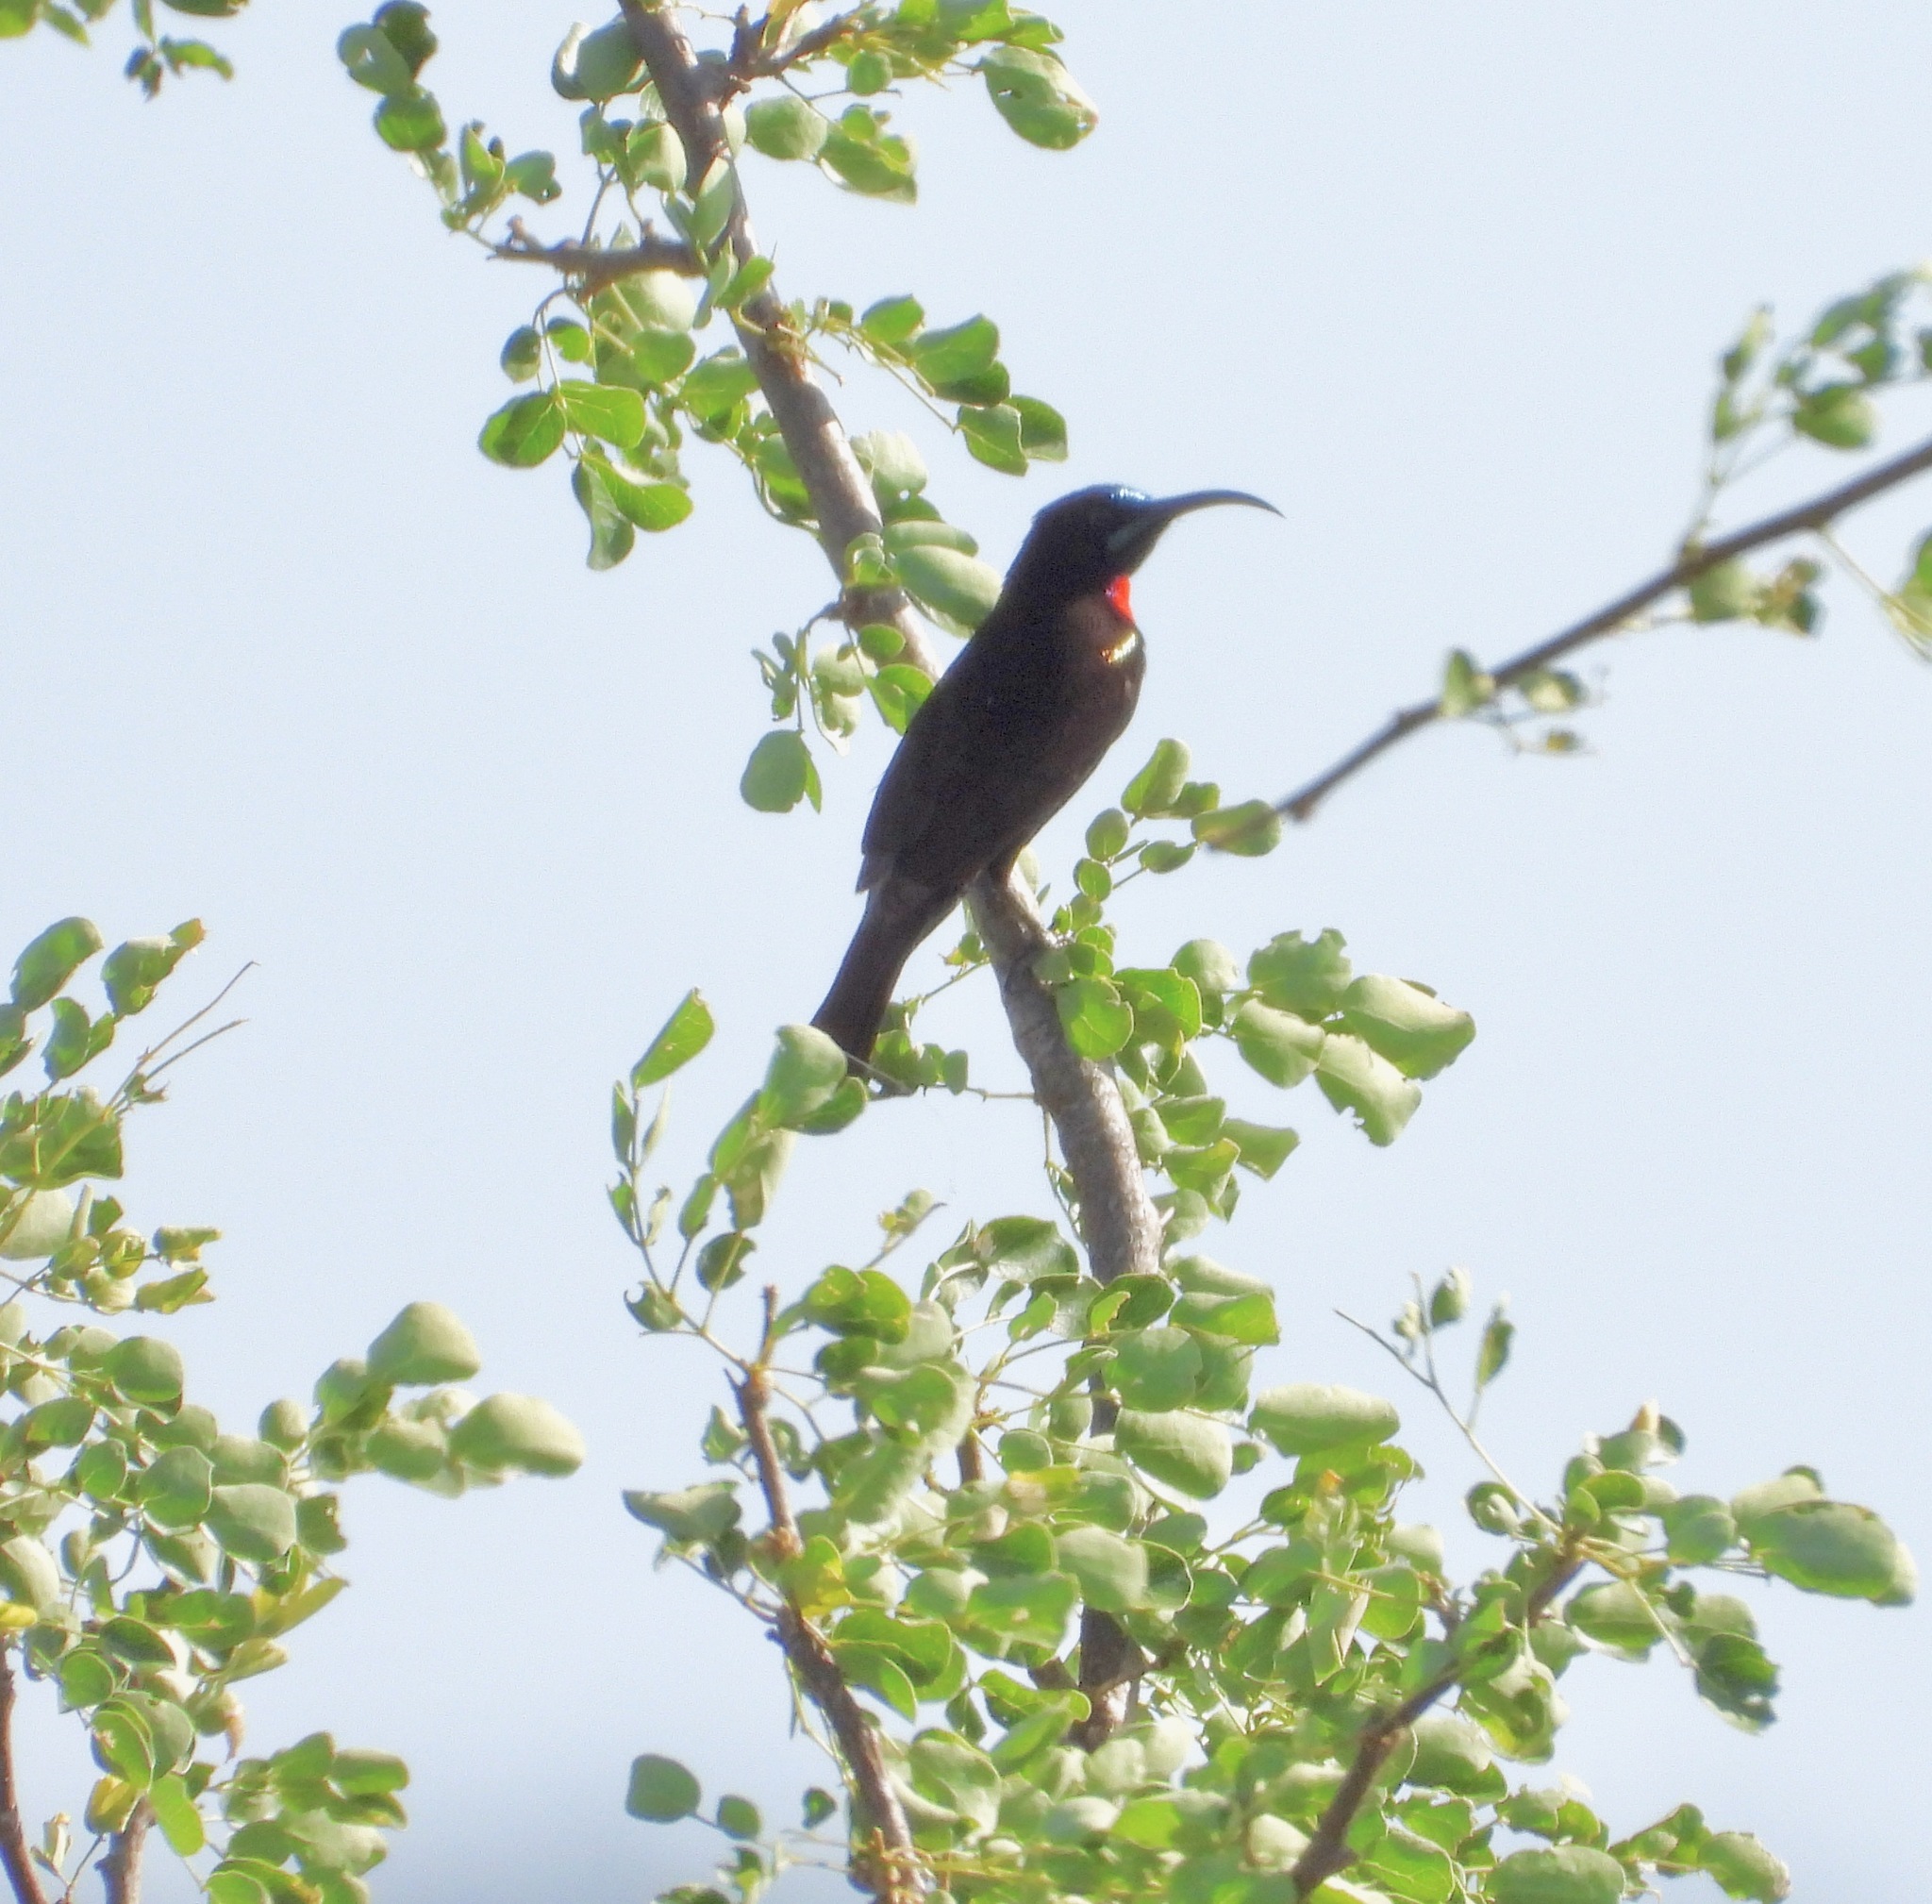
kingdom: Animalia
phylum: Chordata
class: Aves
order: Passeriformes
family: Nectariniidae
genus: Chalcomitra
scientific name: Chalcomitra hunteri
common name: Hunter's sunbird
